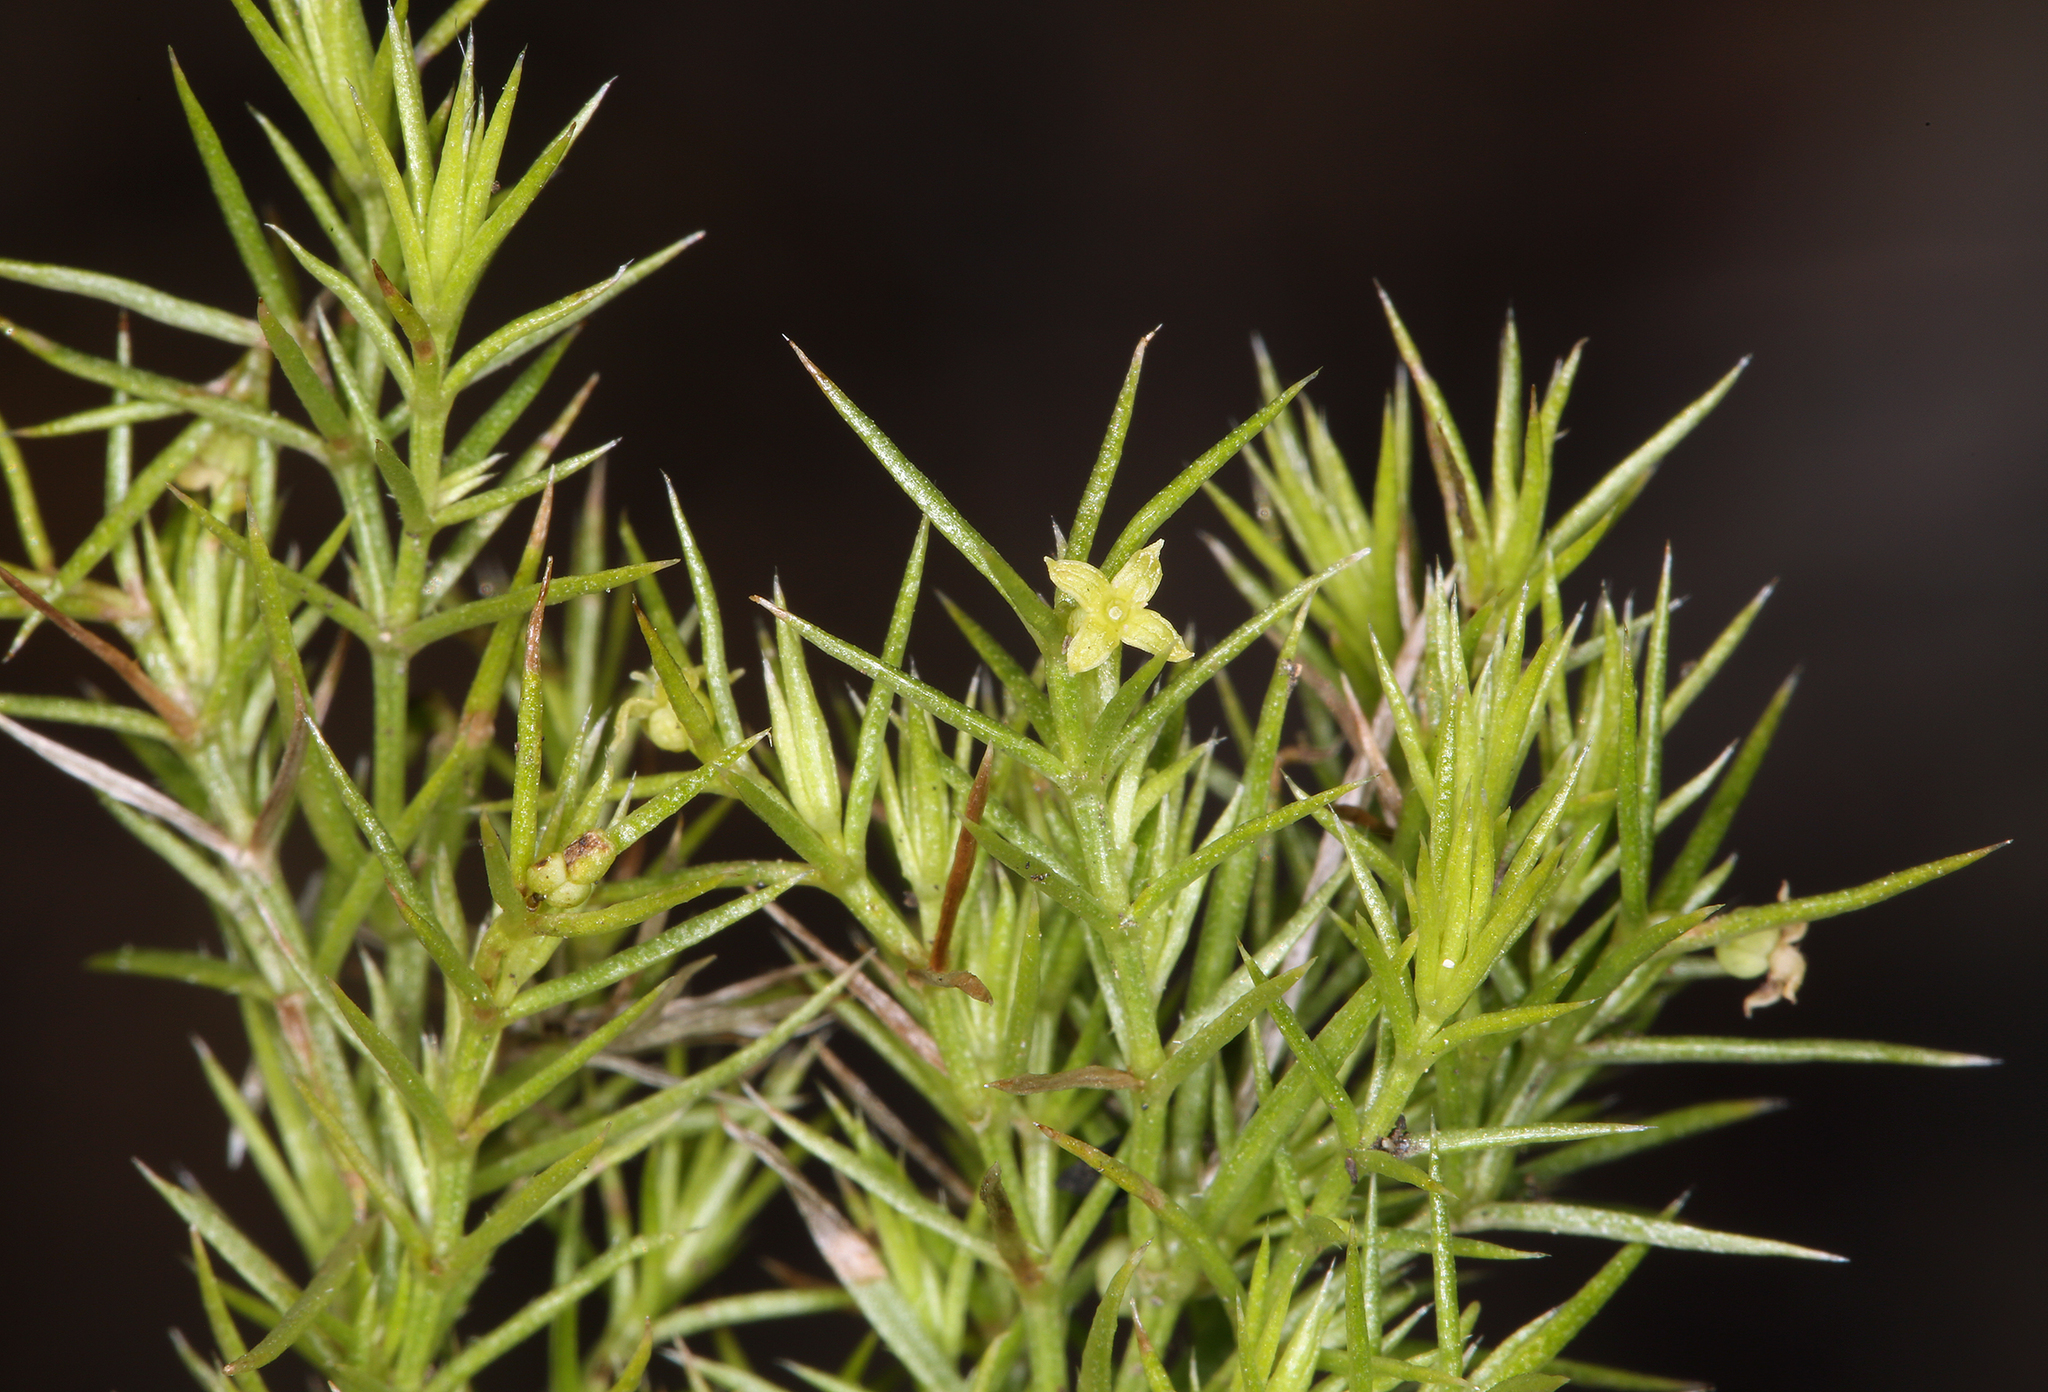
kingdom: Plantae
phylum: Tracheophyta
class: Magnoliopsida
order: Gentianales
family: Rubiaceae
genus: Galium
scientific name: Galium andrewsii
